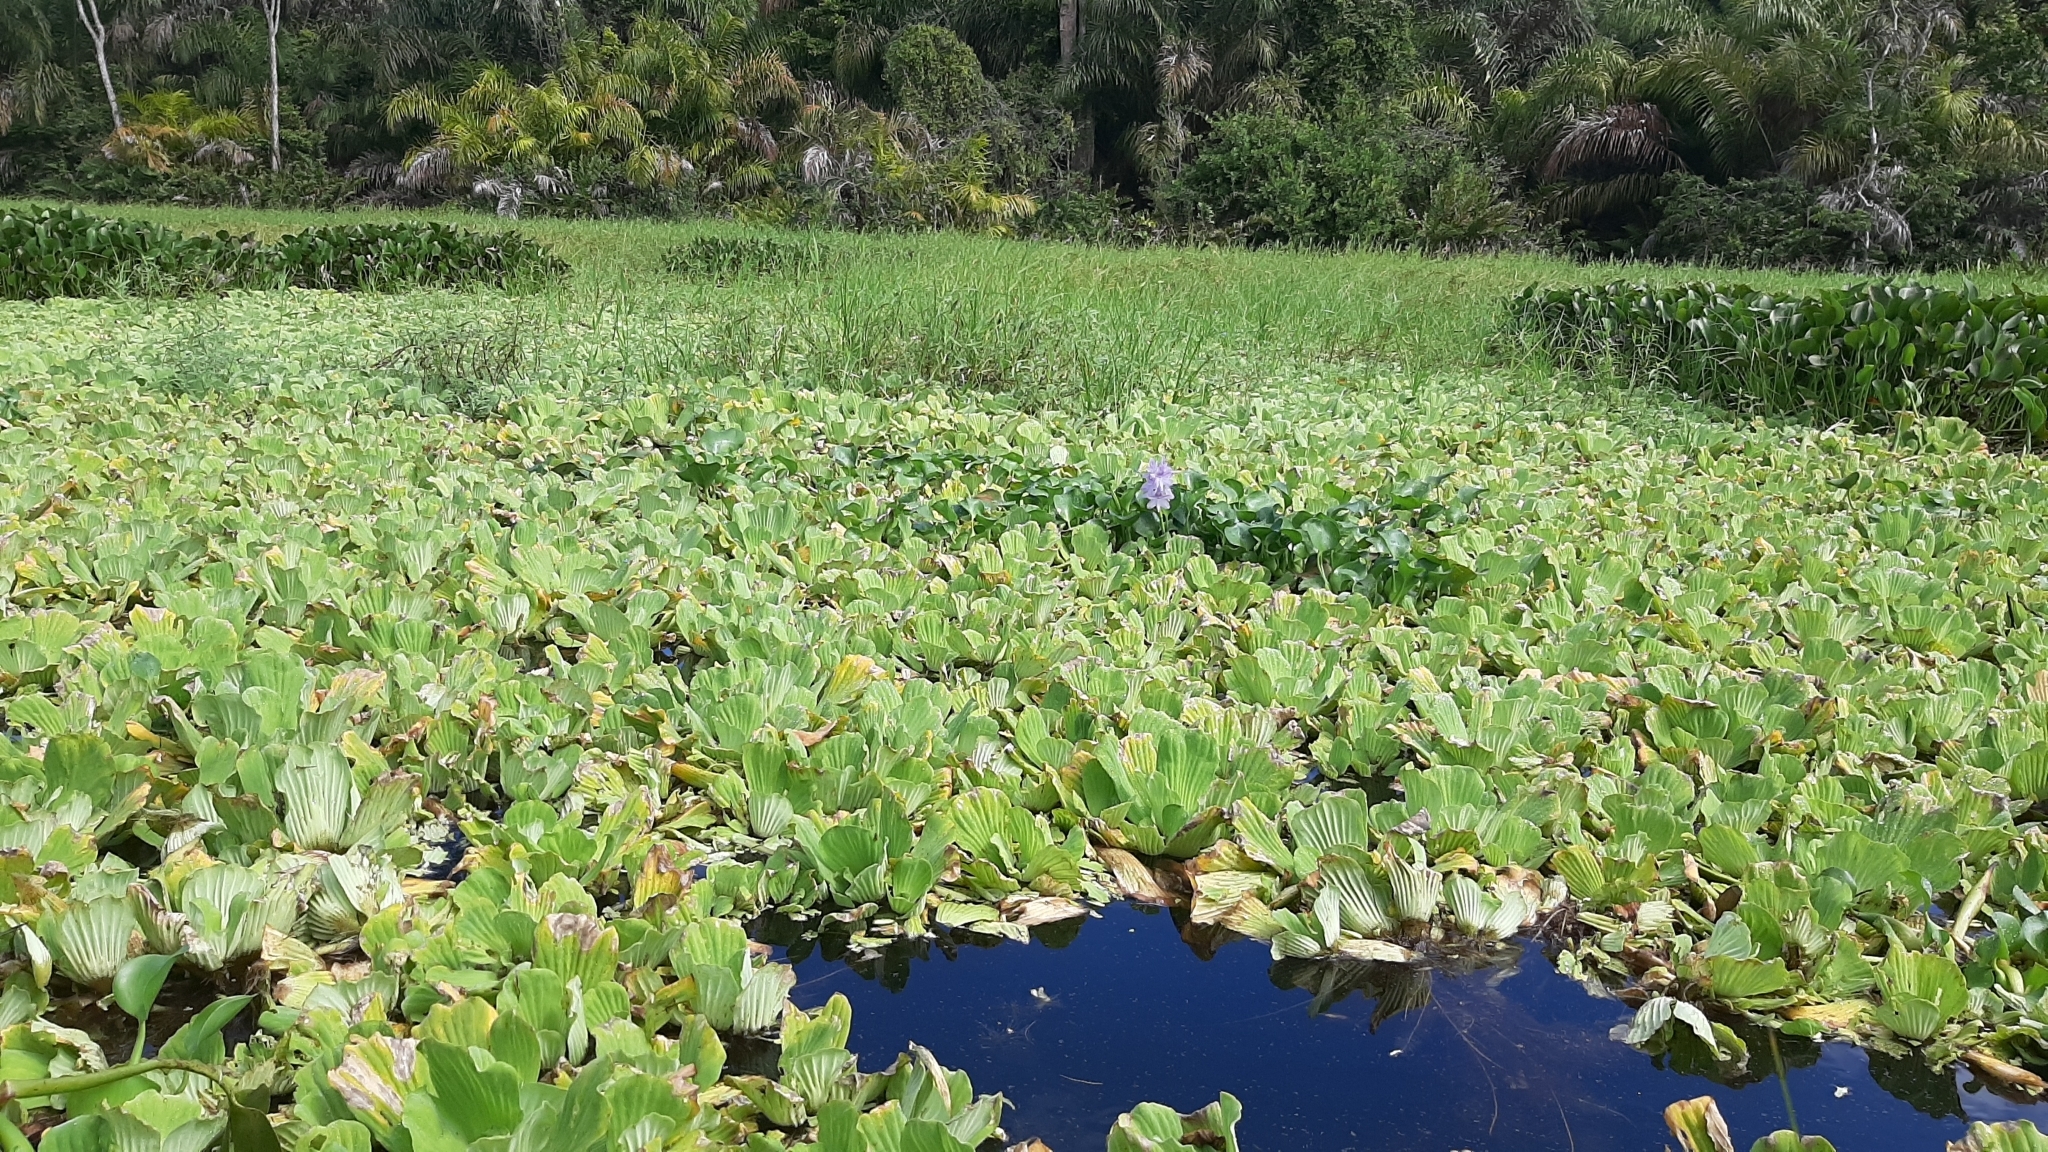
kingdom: Plantae
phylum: Tracheophyta
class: Liliopsida
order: Alismatales
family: Araceae
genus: Pistia
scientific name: Pistia stratiotes
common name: Water lettuce
